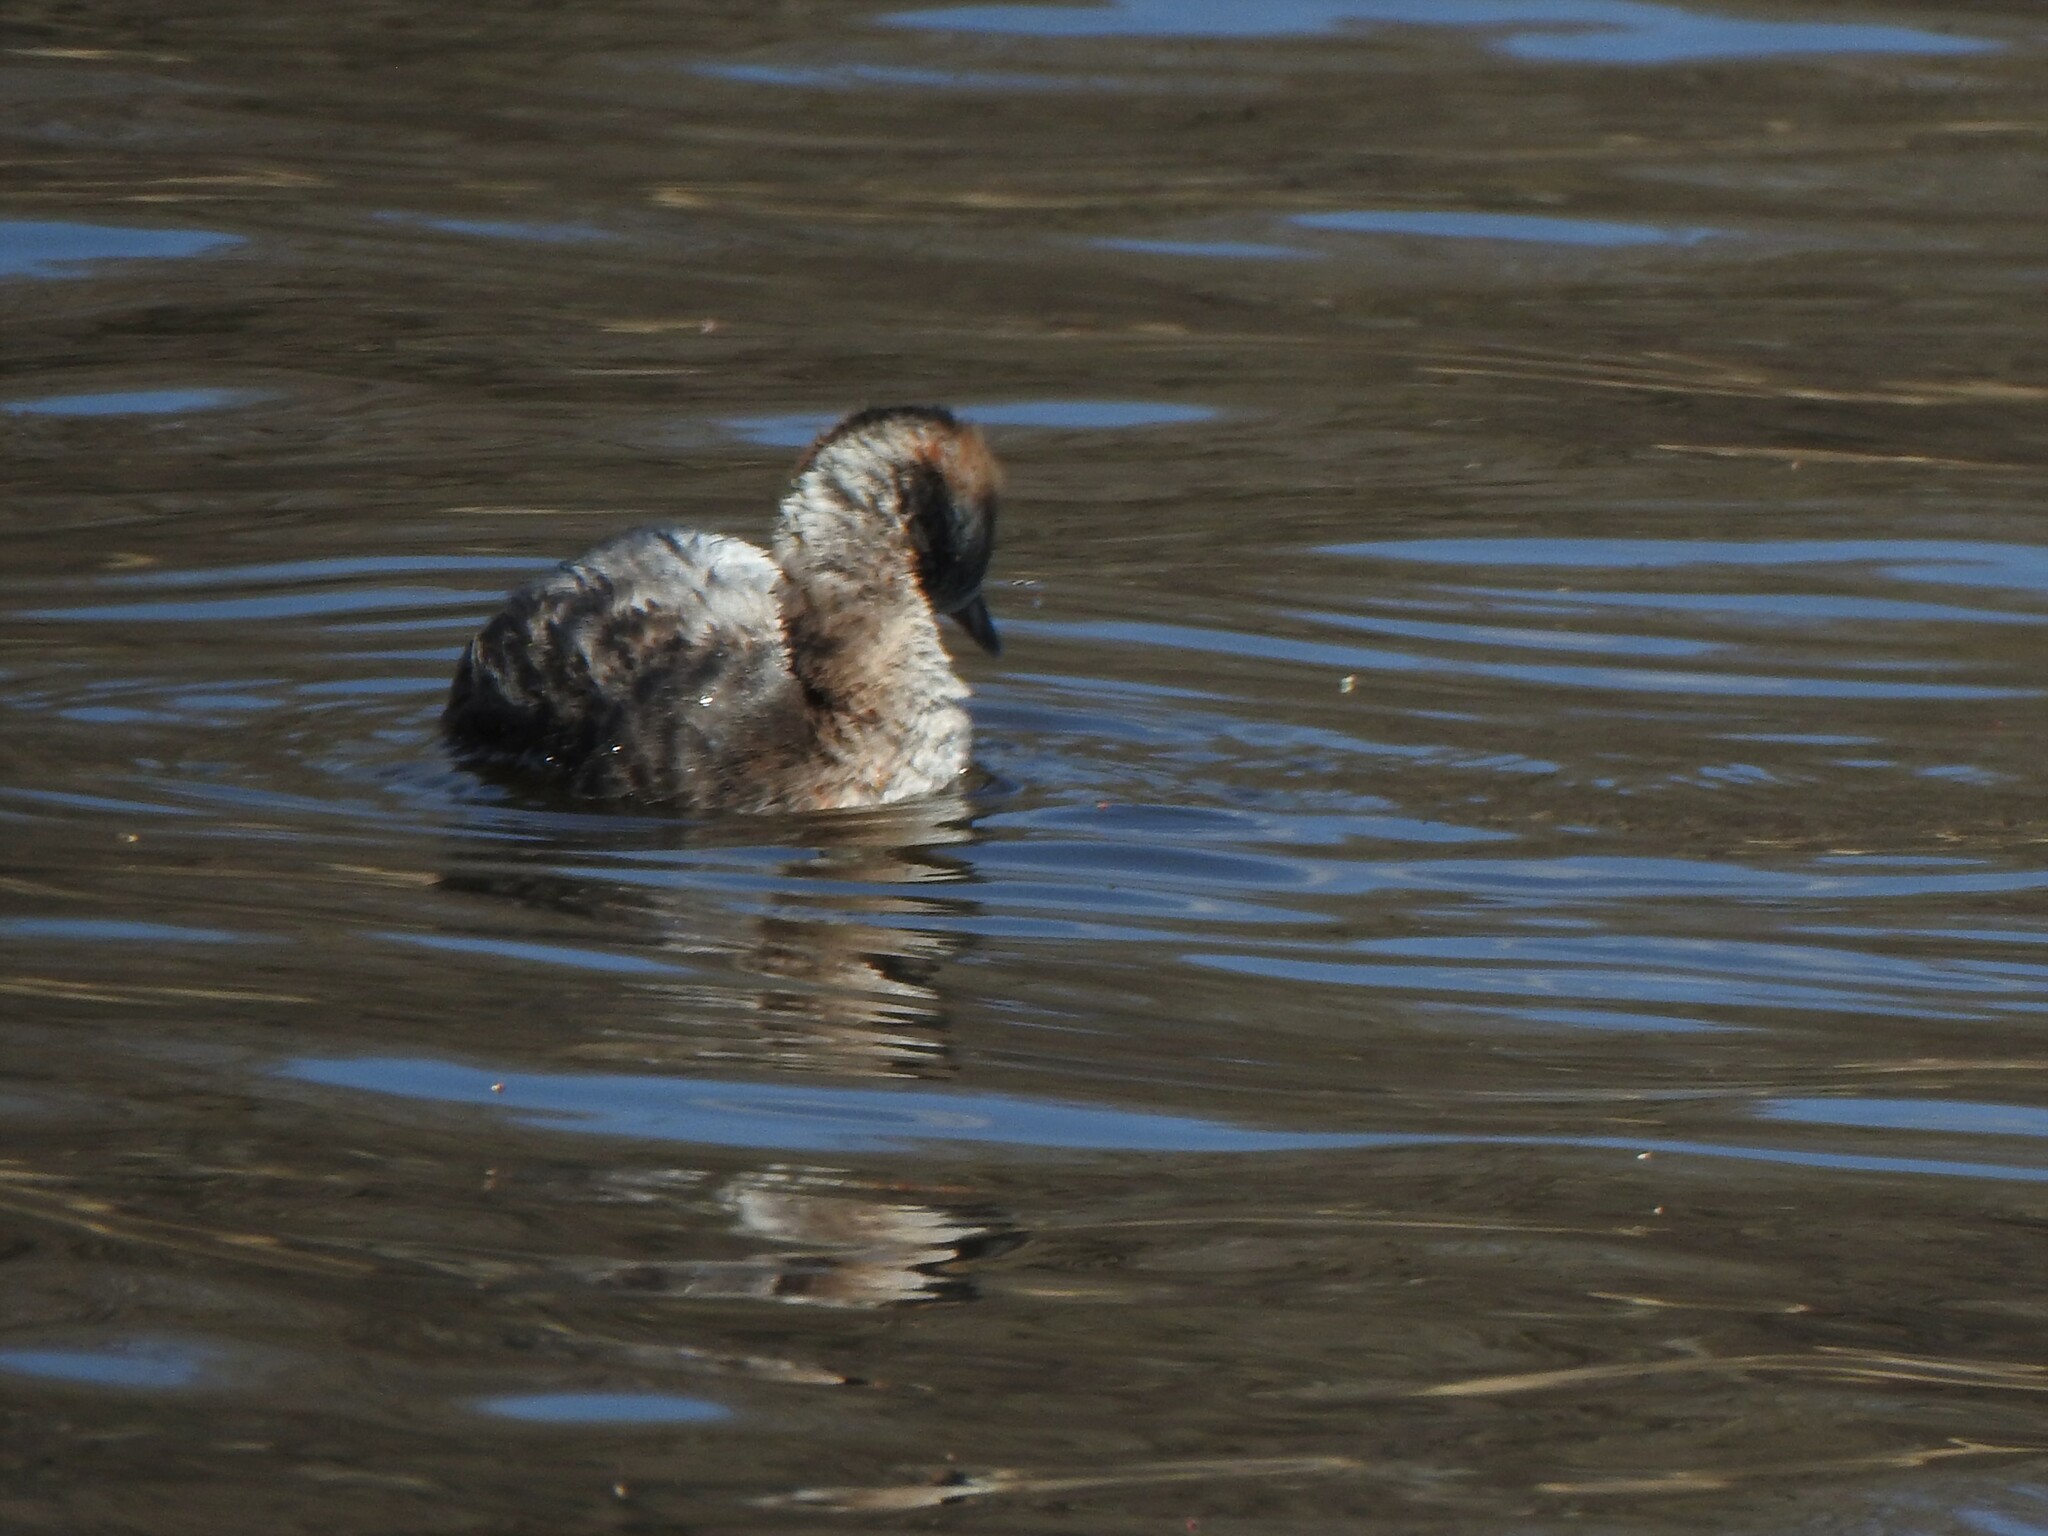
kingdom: Animalia
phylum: Chordata
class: Aves
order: Podicipediformes
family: Podicipedidae
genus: Podiceps
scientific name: Podiceps auritus
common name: Horned grebe
